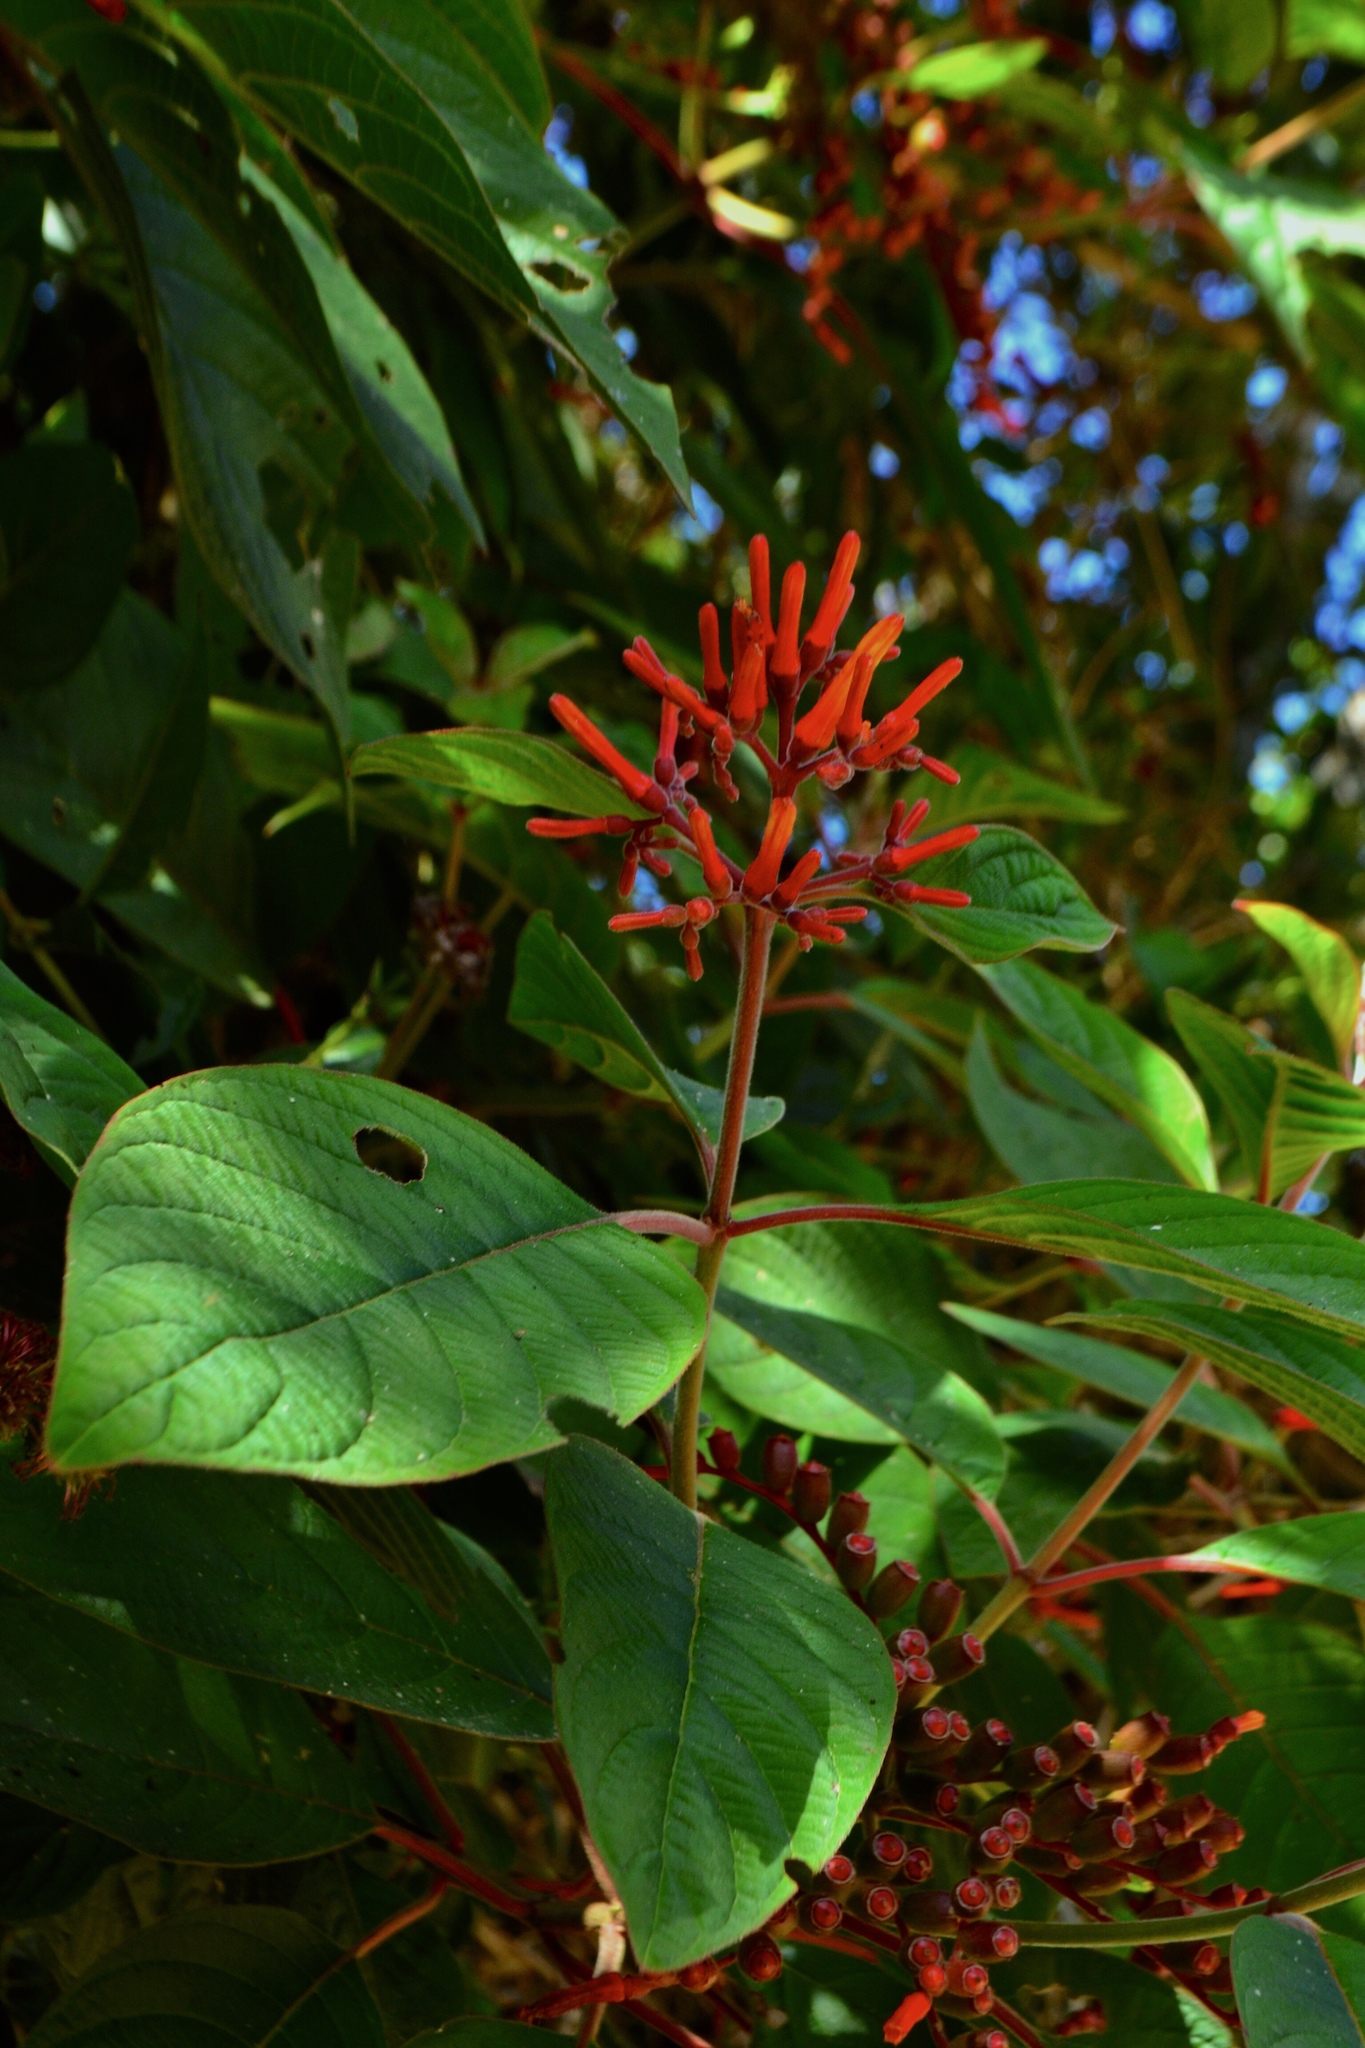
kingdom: Plantae
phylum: Tracheophyta
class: Magnoliopsida
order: Gentianales
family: Rubiaceae
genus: Hamelia
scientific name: Hamelia patens
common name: Redhead
